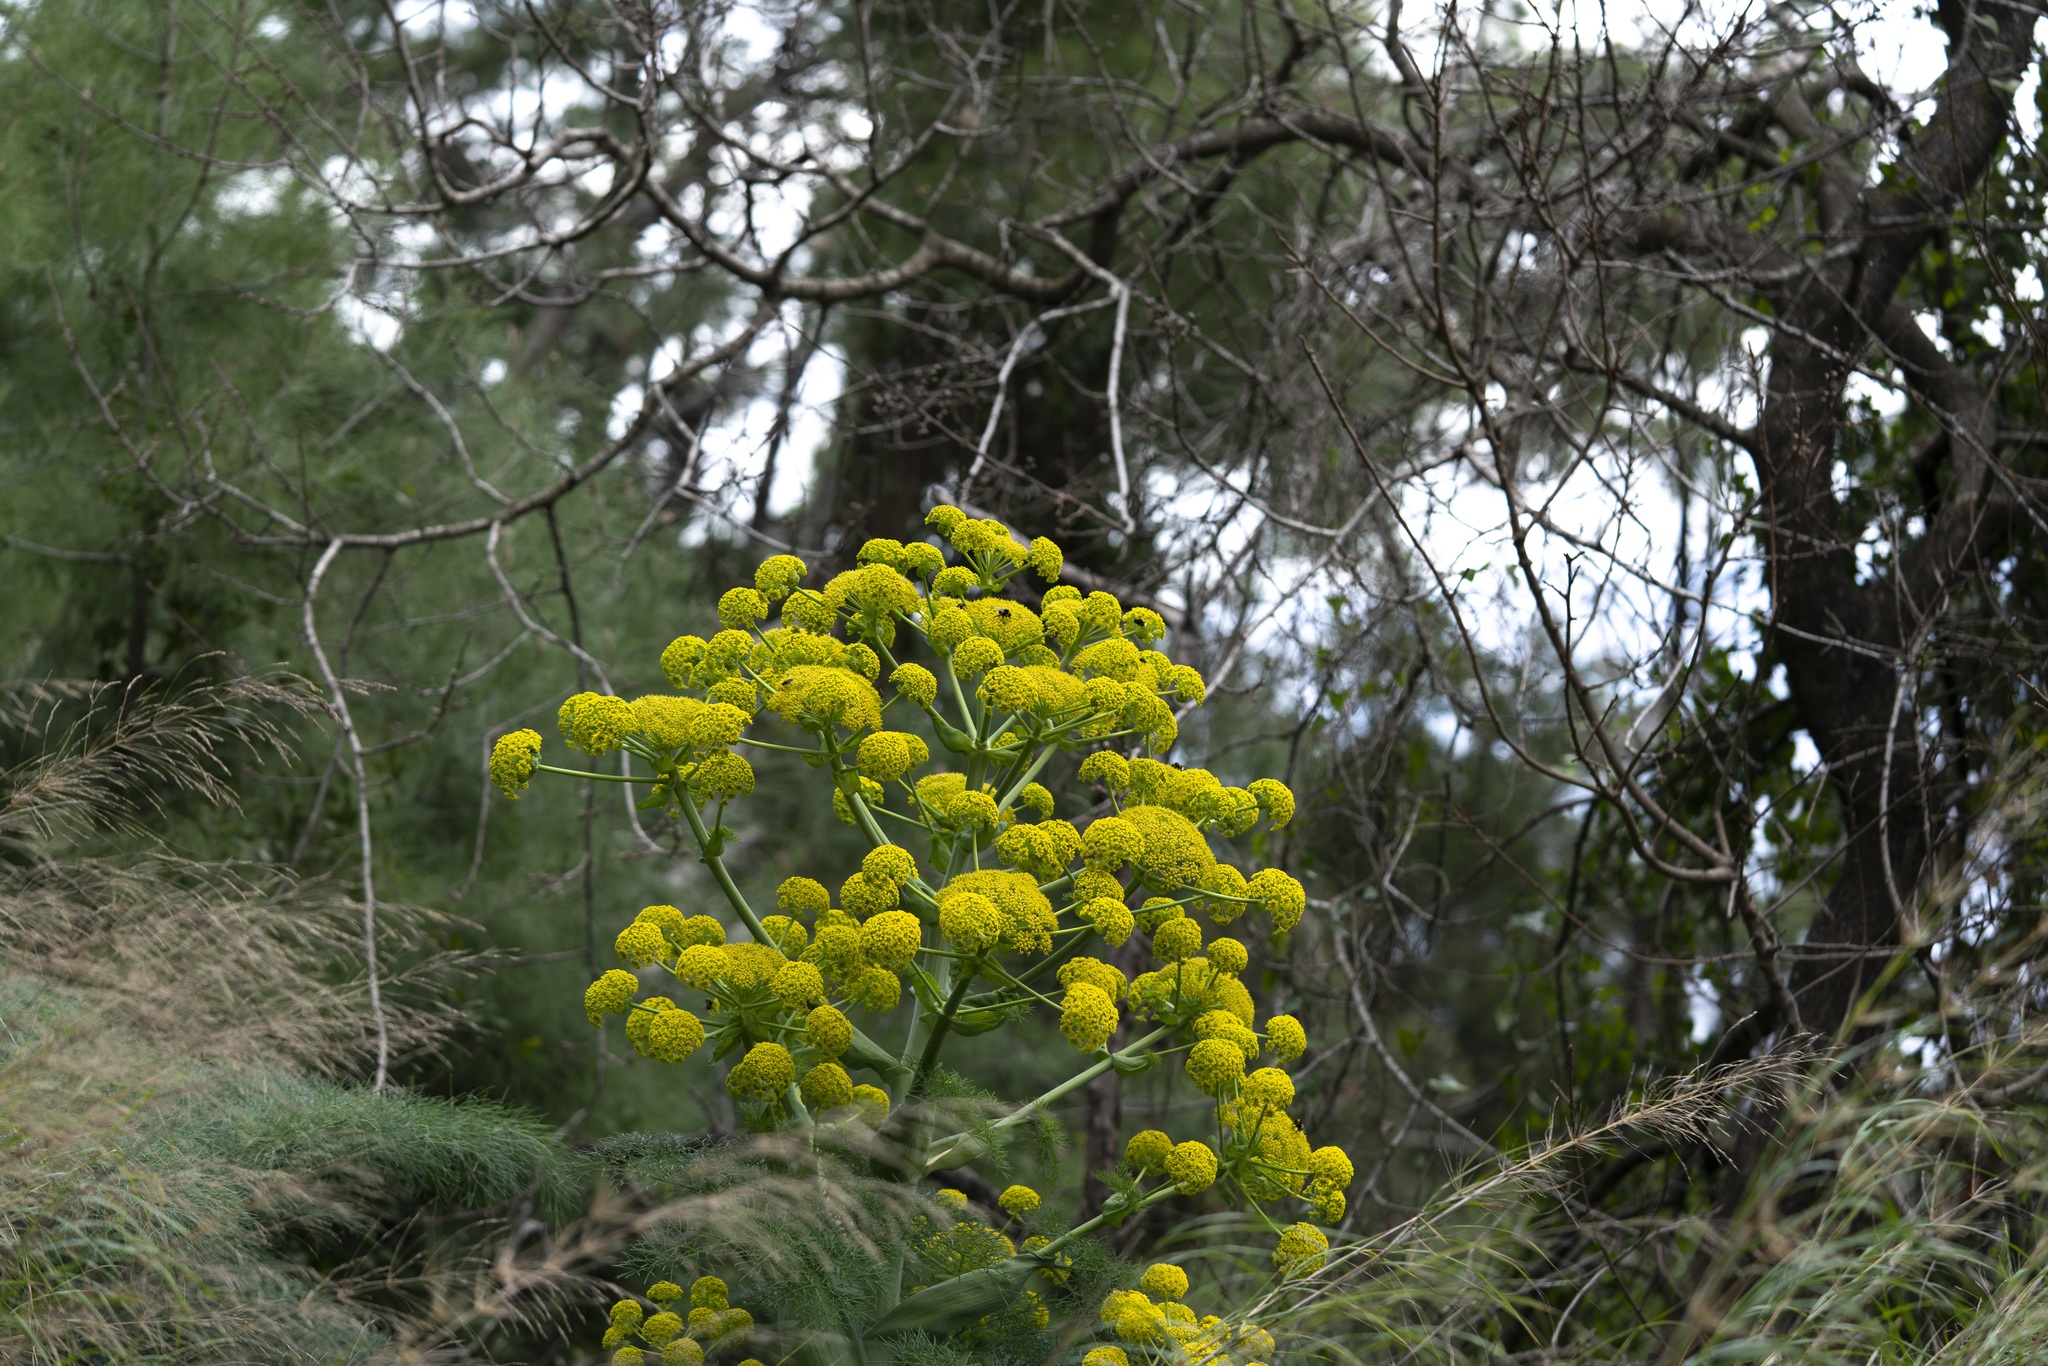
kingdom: Plantae
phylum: Tracheophyta
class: Magnoliopsida
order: Apiales
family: Apiaceae
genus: Ferula
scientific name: Ferula glauca
